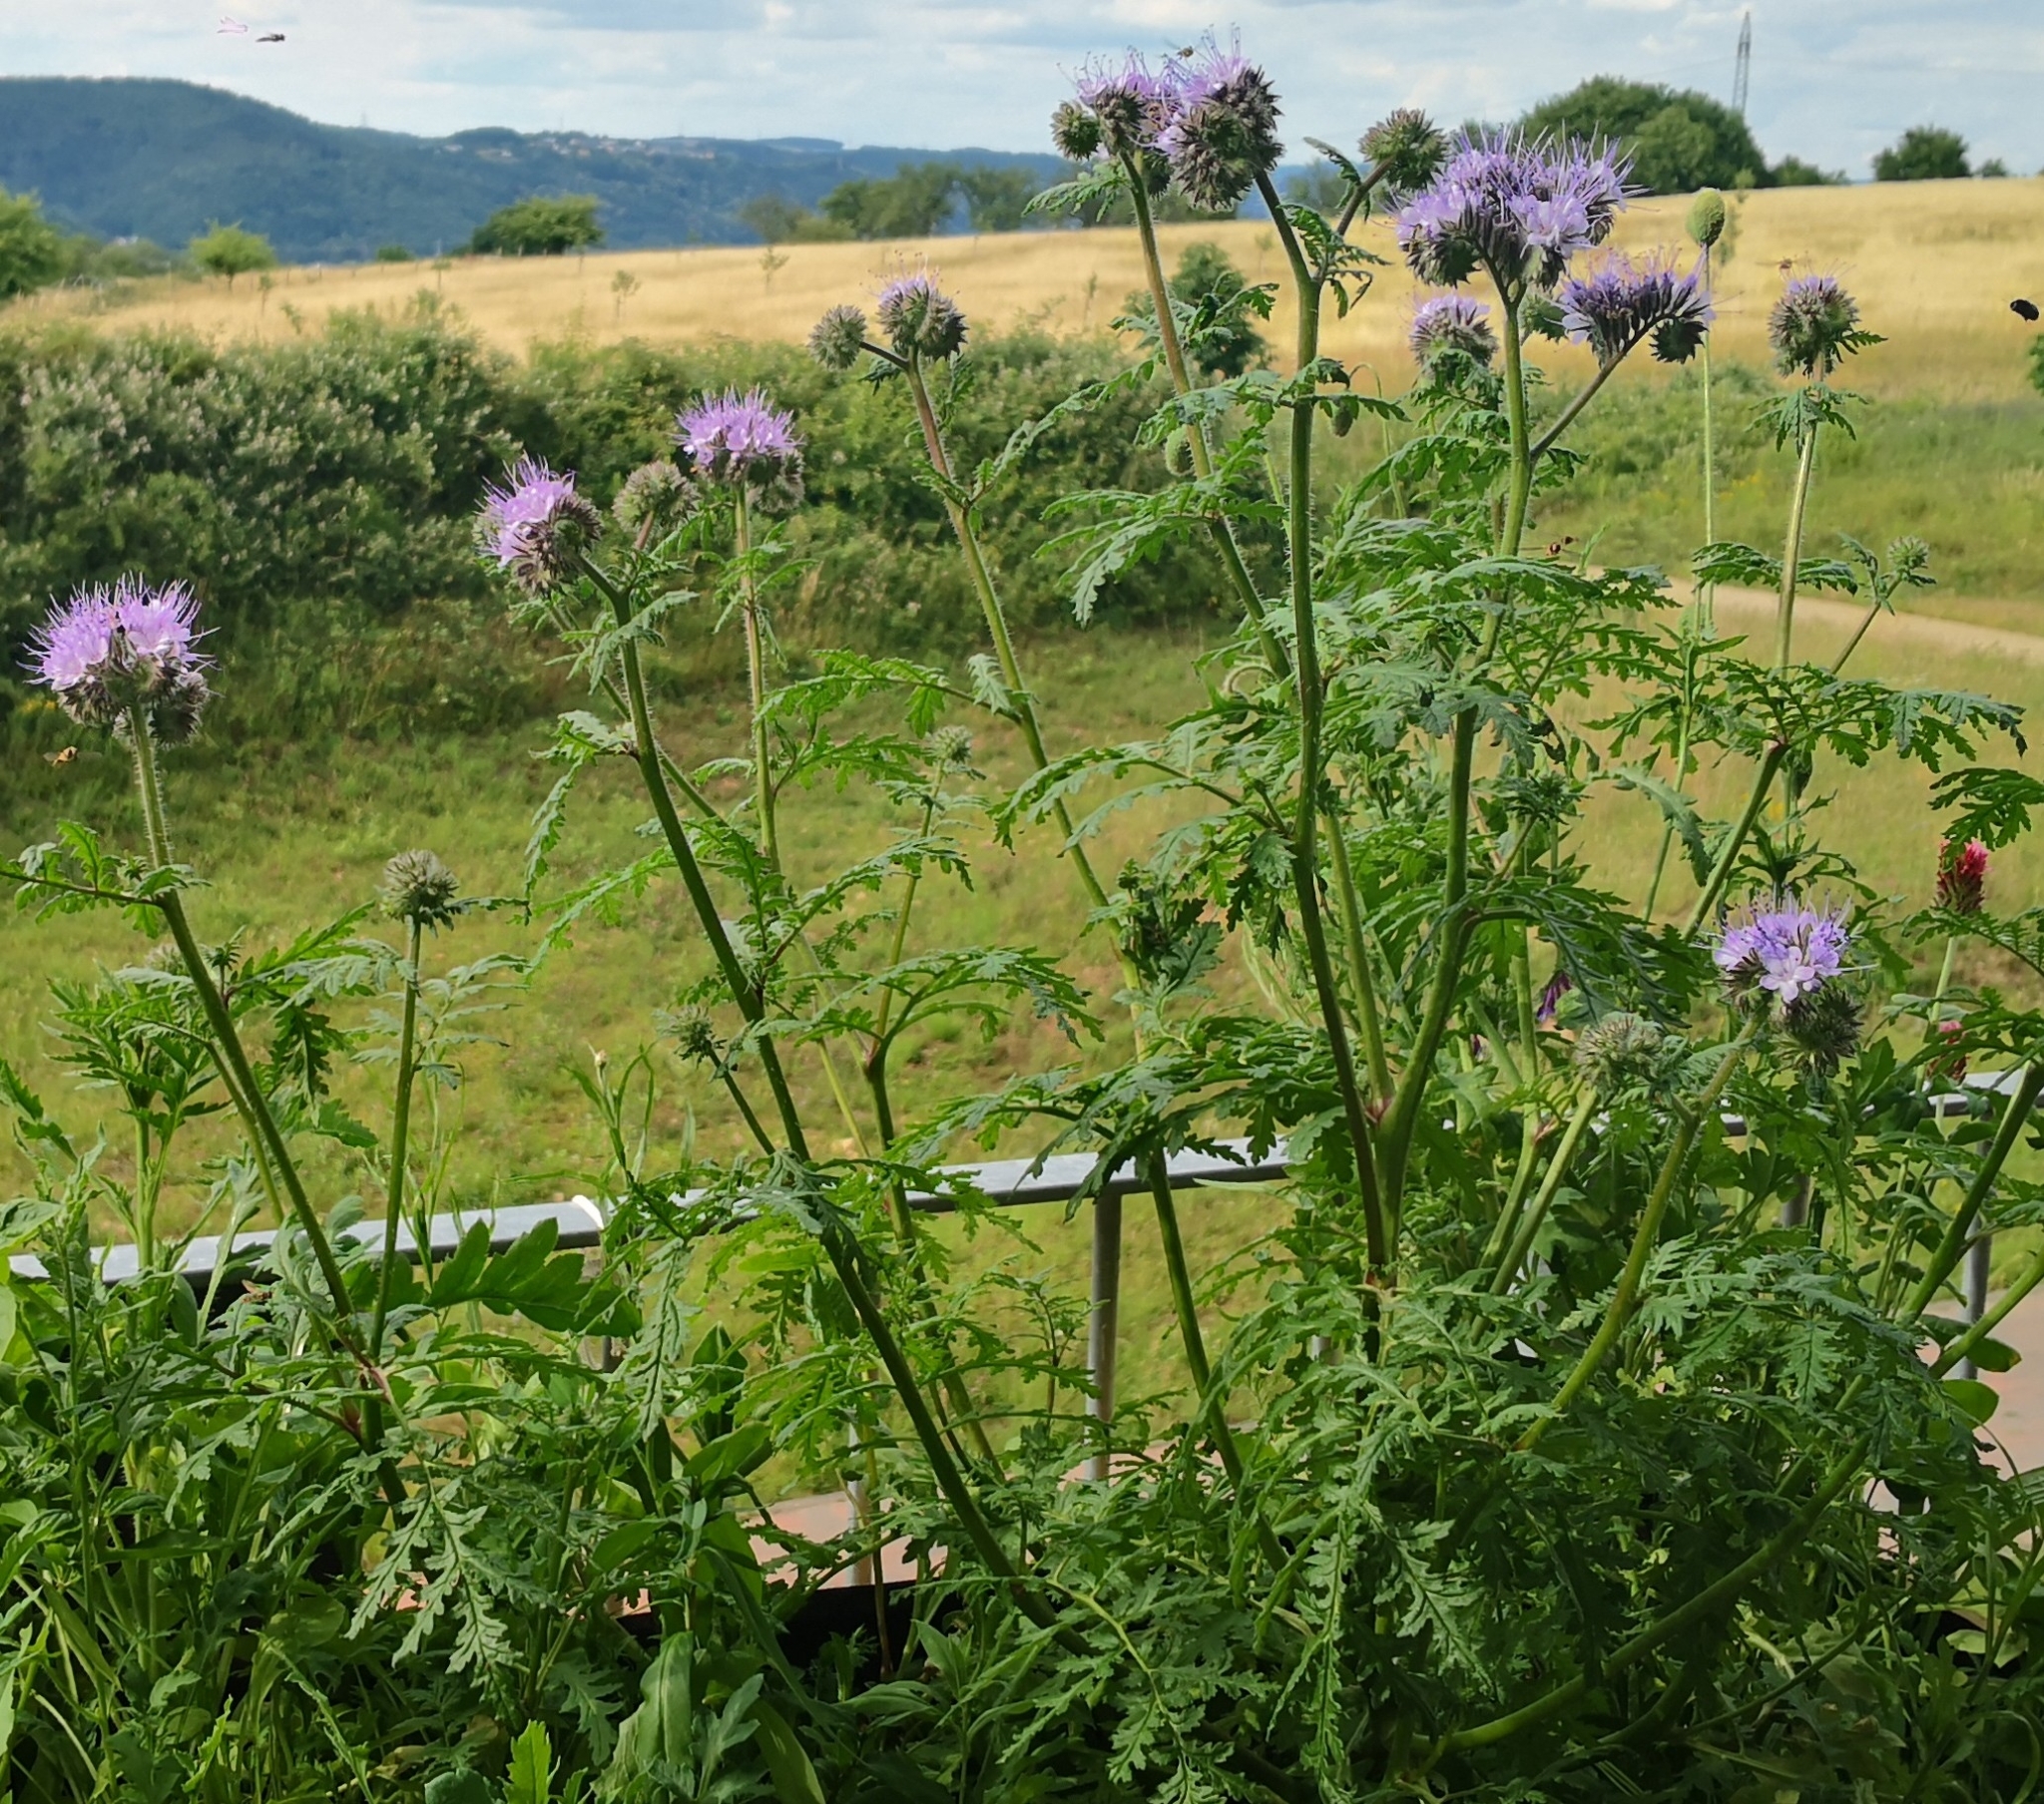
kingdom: Plantae
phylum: Tracheophyta
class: Magnoliopsida
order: Boraginales
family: Hydrophyllaceae
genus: Phacelia
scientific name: Phacelia tanacetifolia
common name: Phacelia
